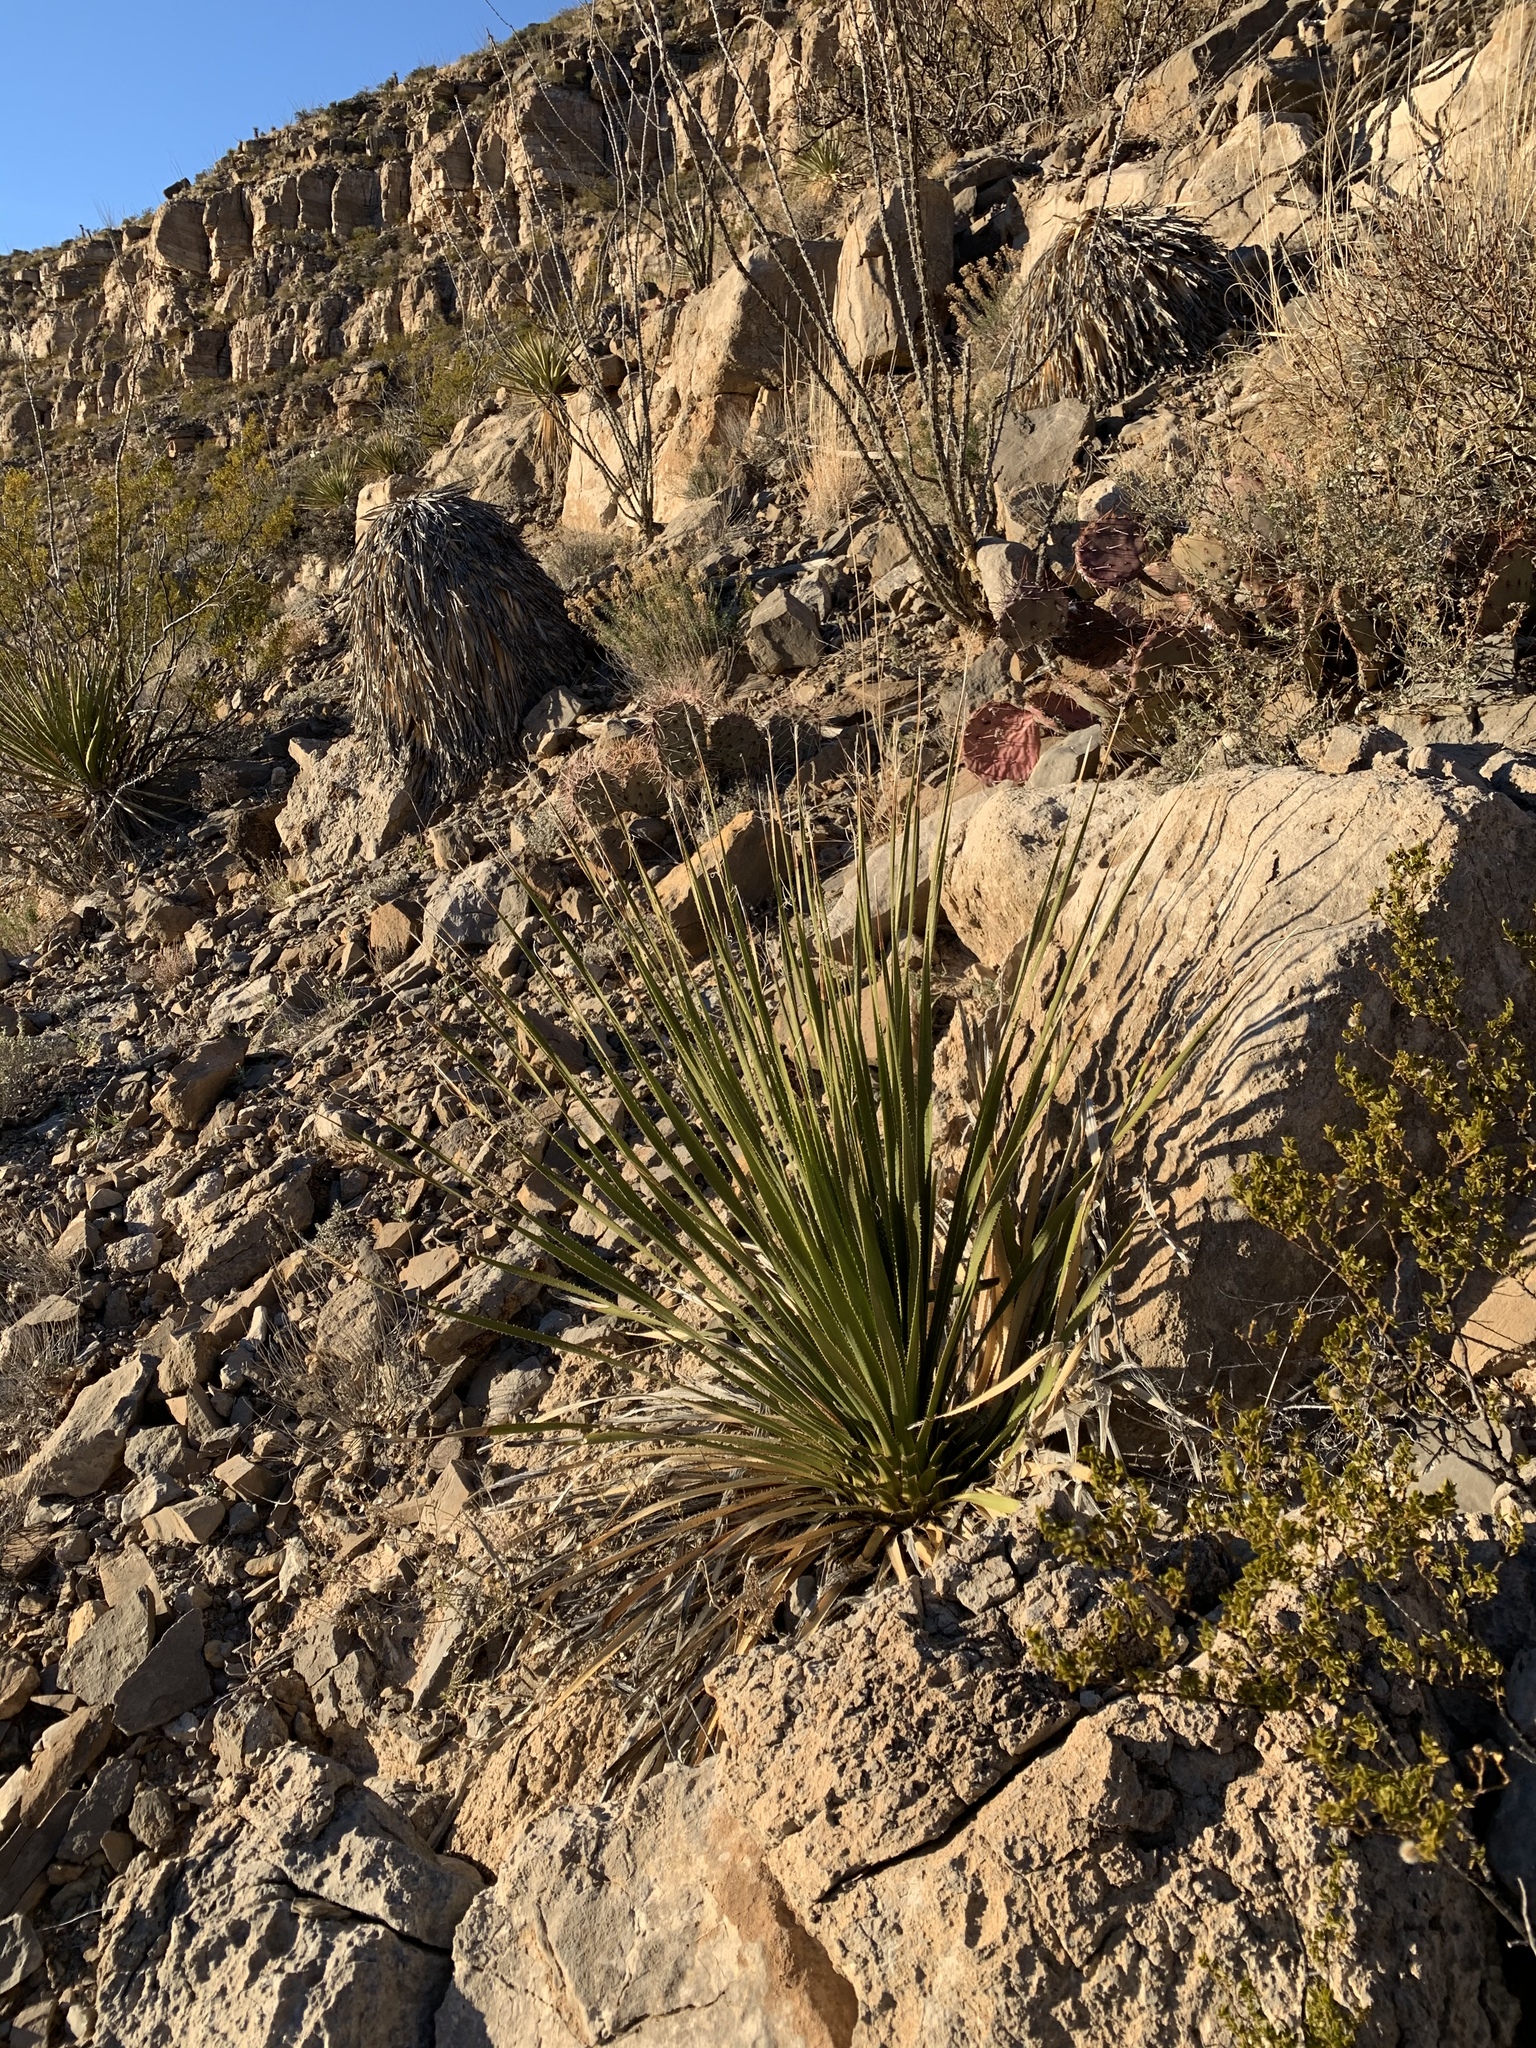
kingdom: Plantae
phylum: Tracheophyta
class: Liliopsida
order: Asparagales
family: Asparagaceae
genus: Dasylirion
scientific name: Dasylirion wheeleri
